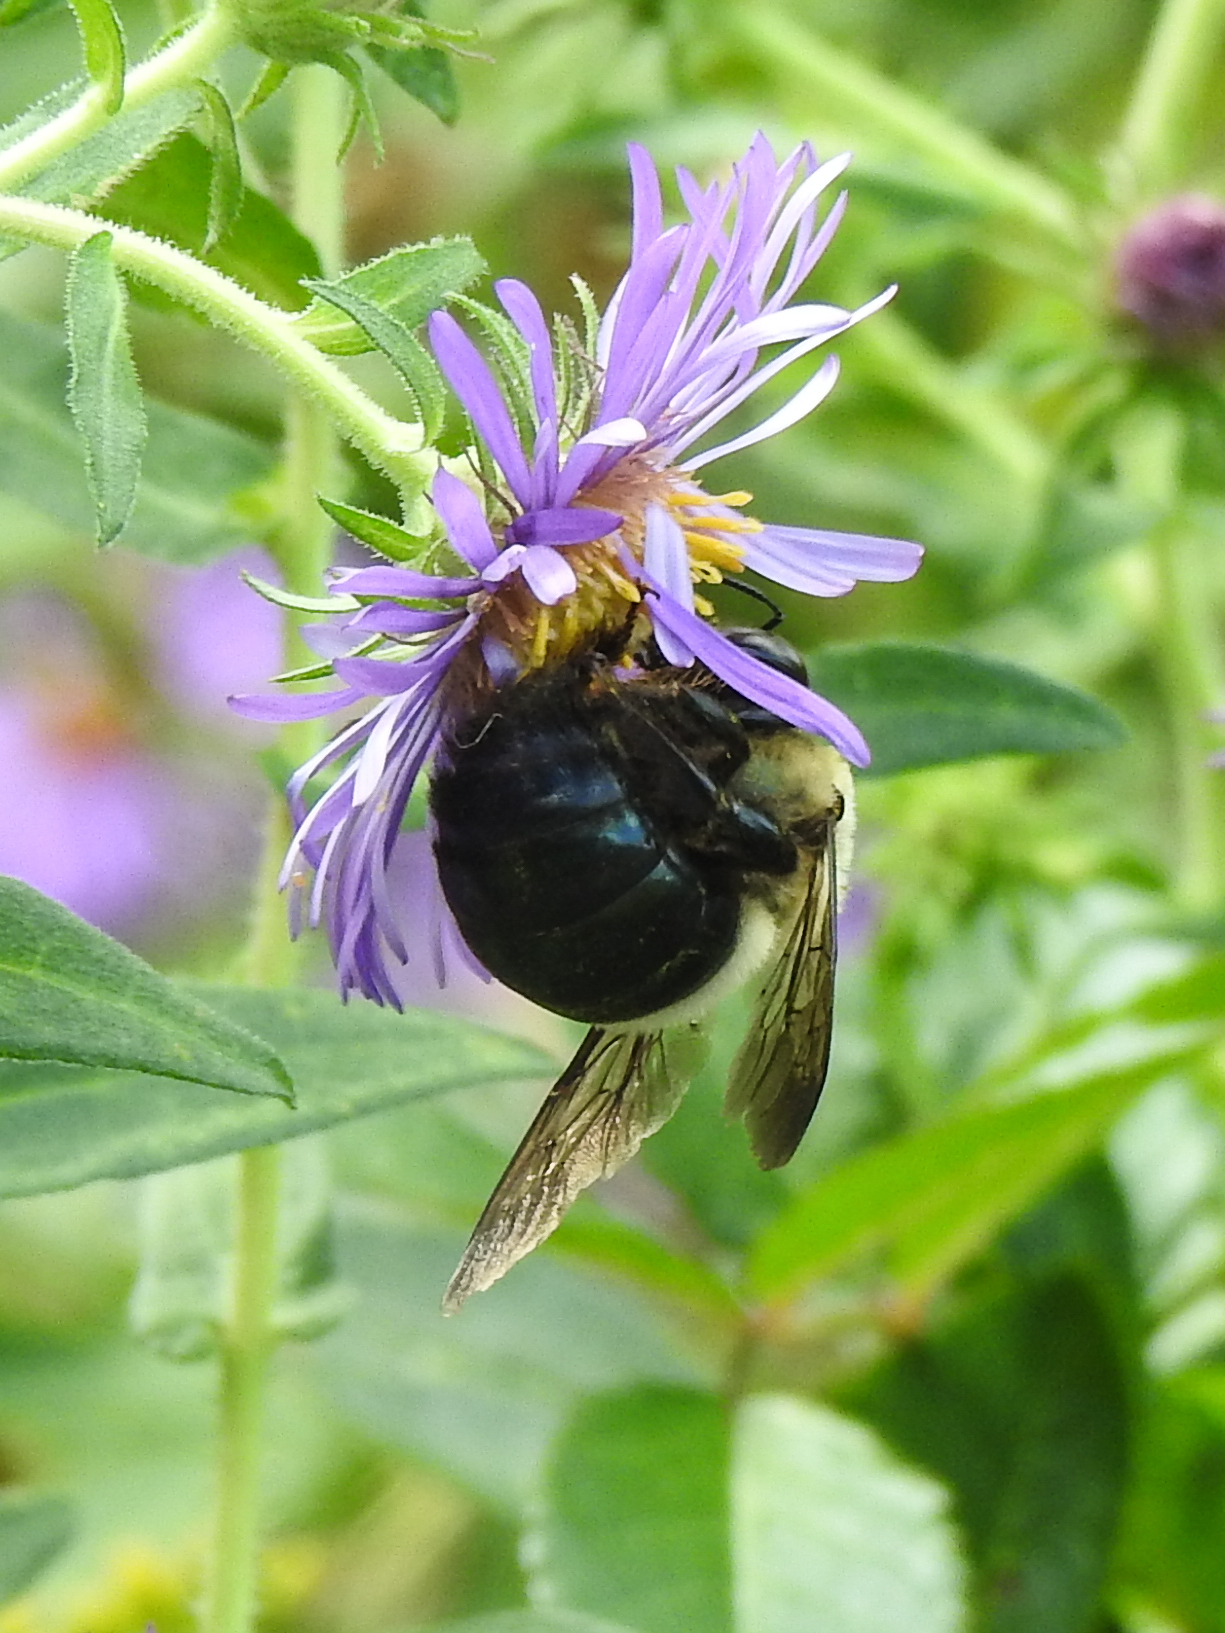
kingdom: Animalia
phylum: Arthropoda
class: Insecta
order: Hymenoptera
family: Apidae
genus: Xylocopa
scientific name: Xylocopa virginica
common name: Carpenter bee
